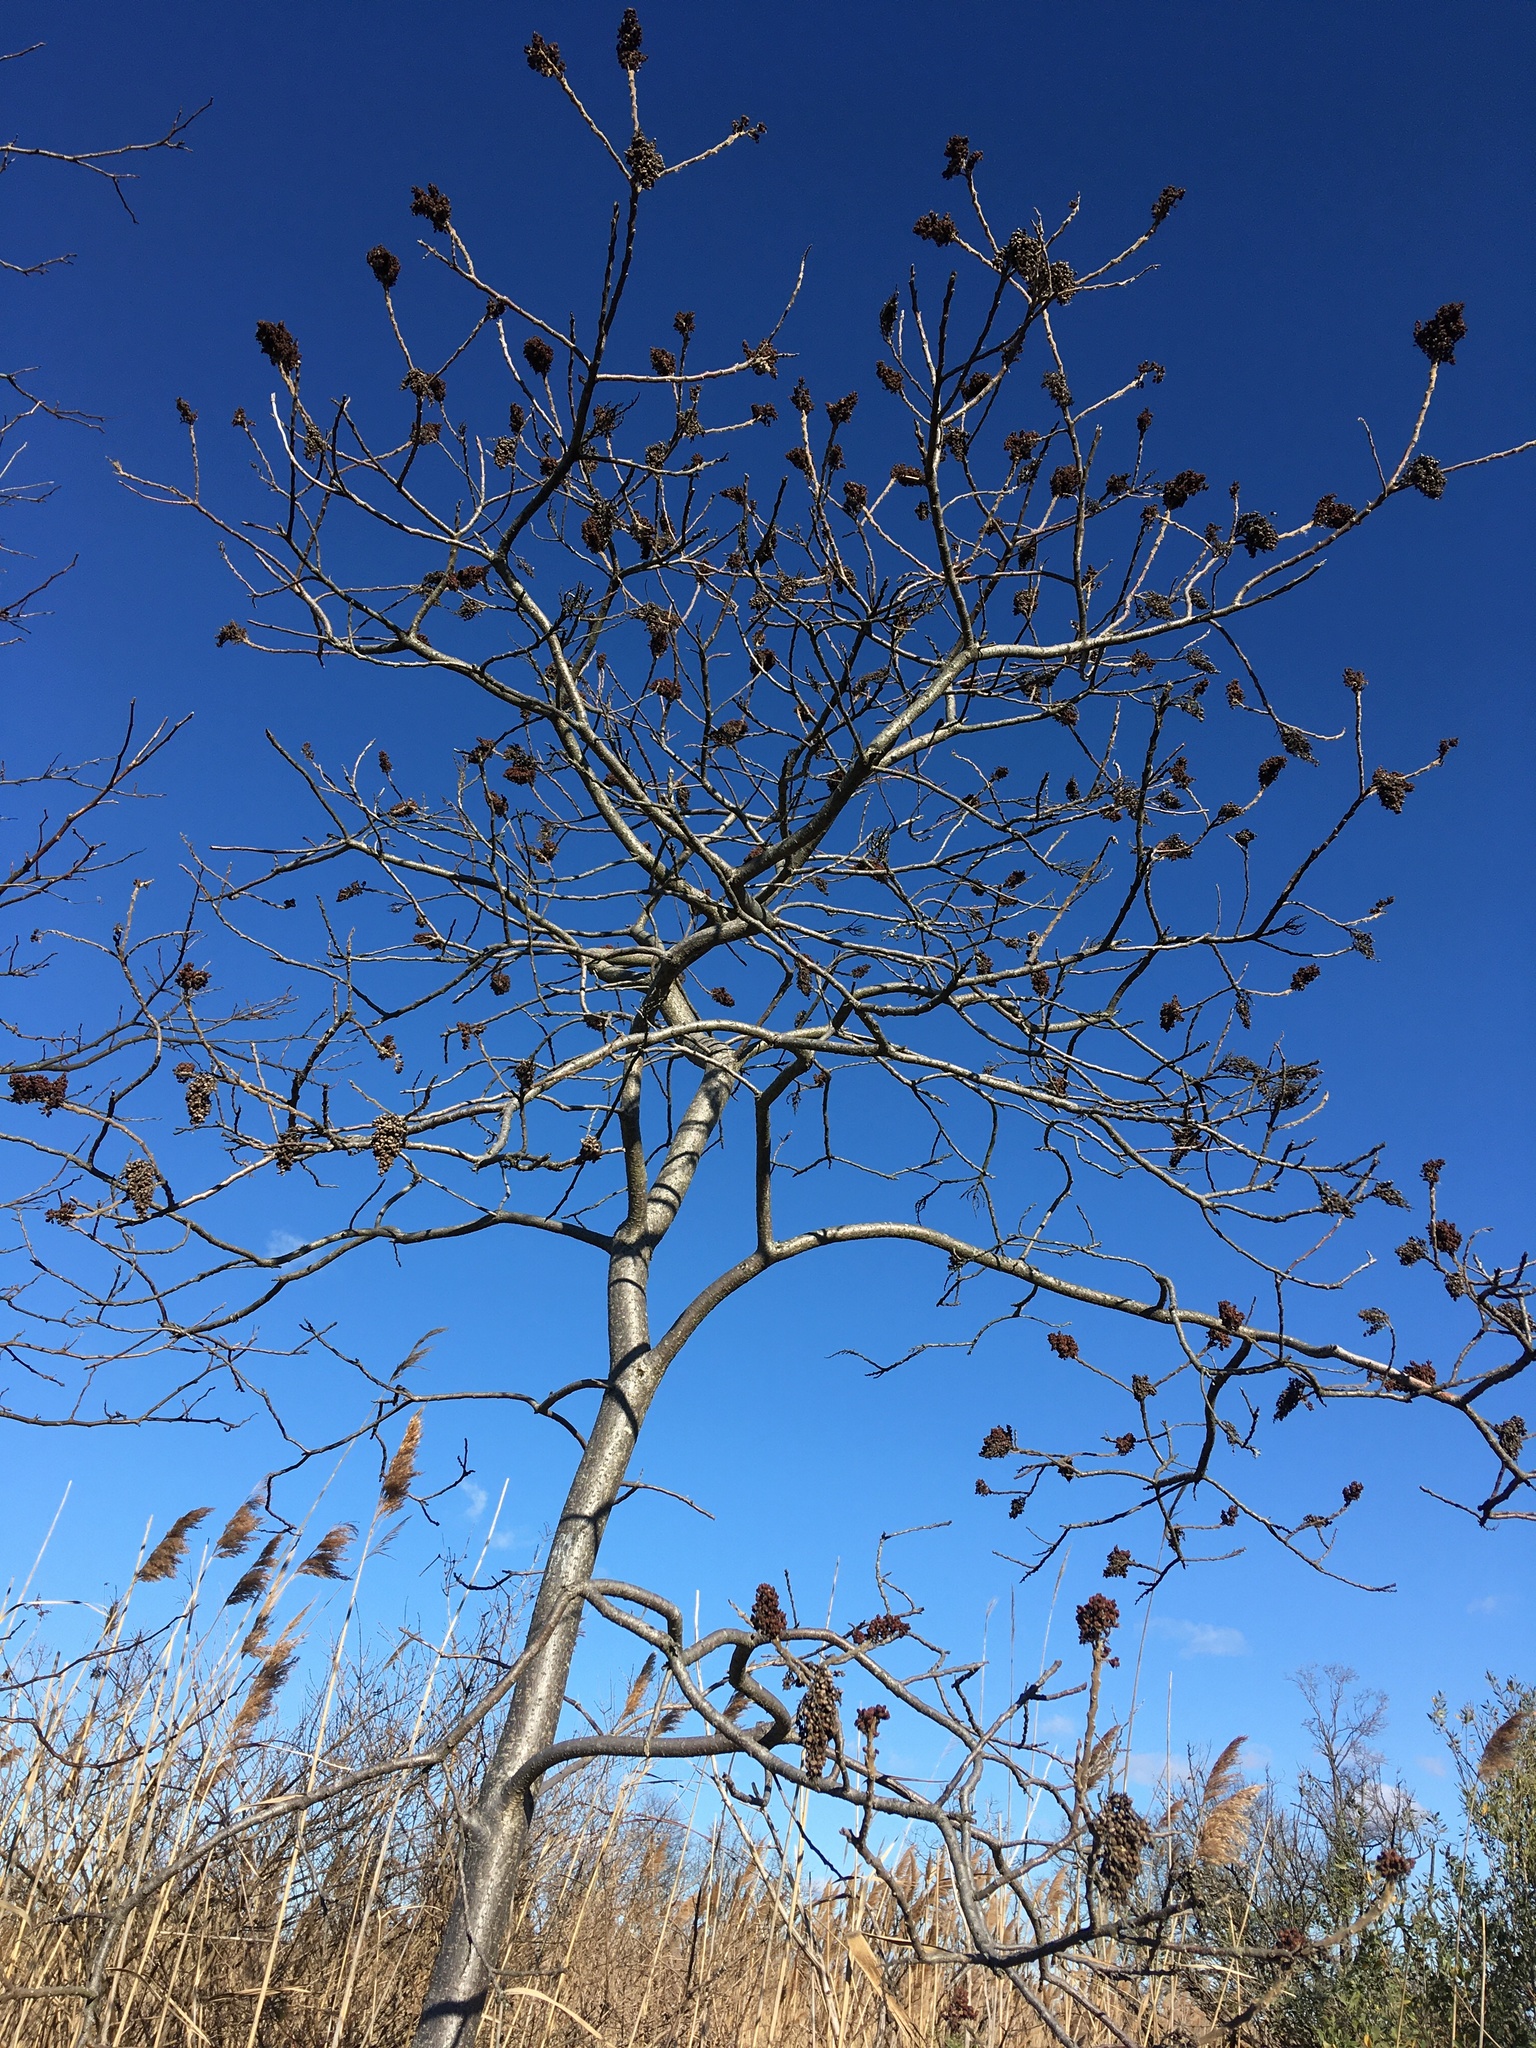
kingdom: Plantae
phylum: Tracheophyta
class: Magnoliopsida
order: Sapindales
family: Anacardiaceae
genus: Rhus
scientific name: Rhus copallina
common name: Shining sumac
